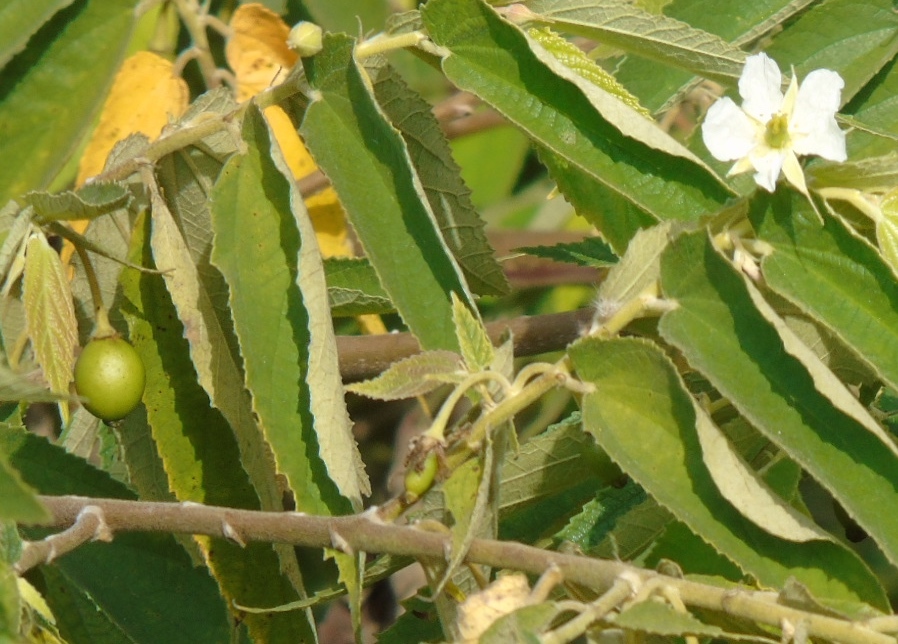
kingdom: Plantae
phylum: Tracheophyta
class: Magnoliopsida
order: Malvales
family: Muntingiaceae
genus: Muntingia
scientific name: Muntingia calabura
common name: Strawberrytree
